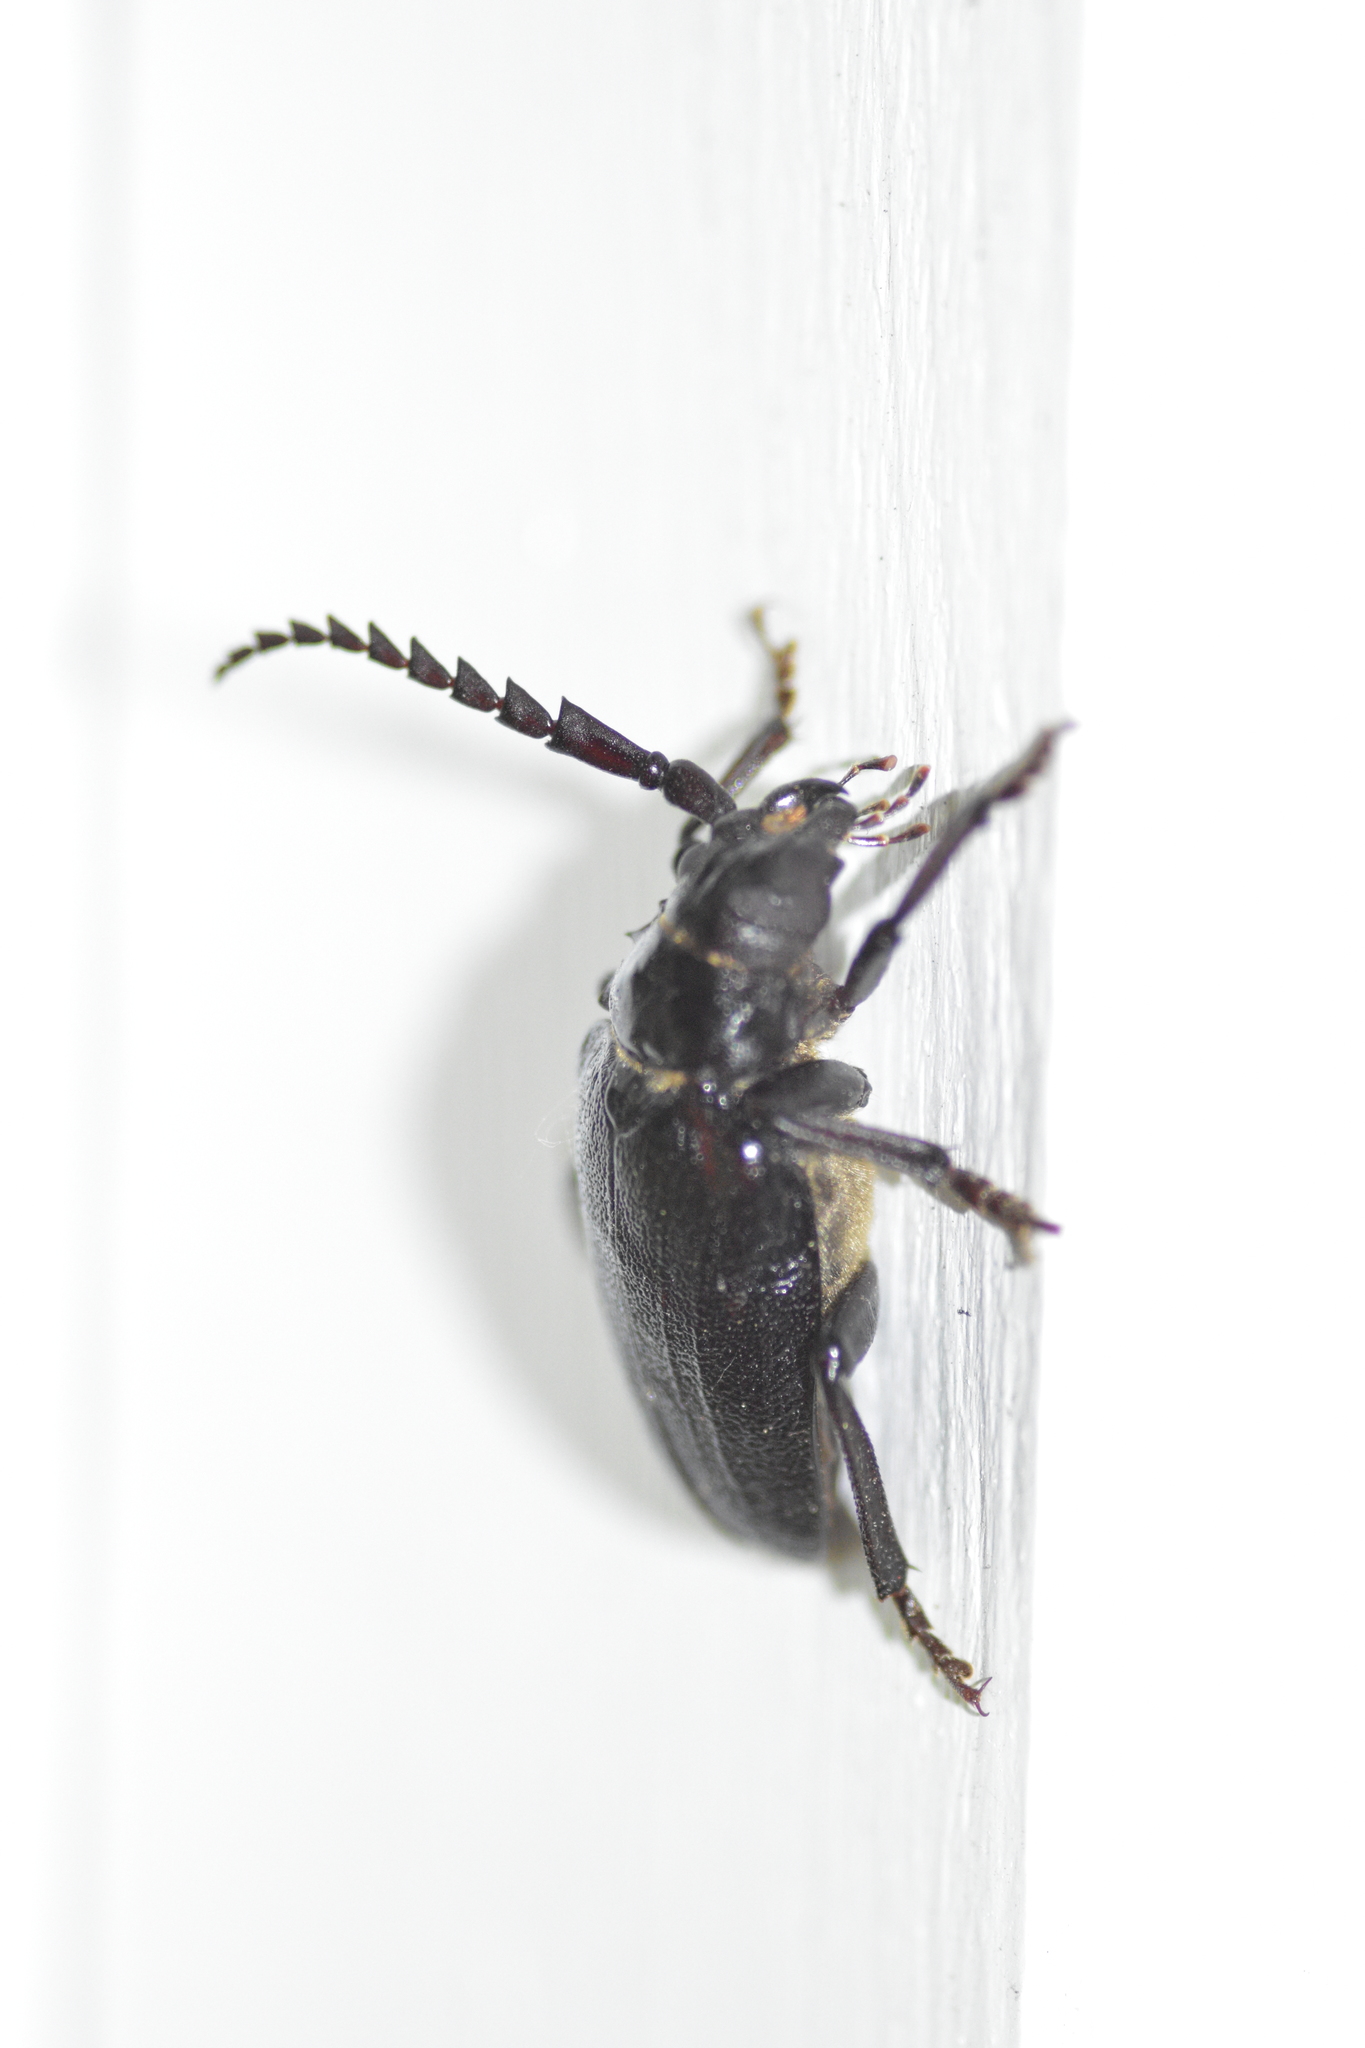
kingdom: Animalia
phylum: Arthropoda
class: Insecta
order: Coleoptera
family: Cerambycidae
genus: Prionus
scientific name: Prionus laticollis
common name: Broad necked prionus
